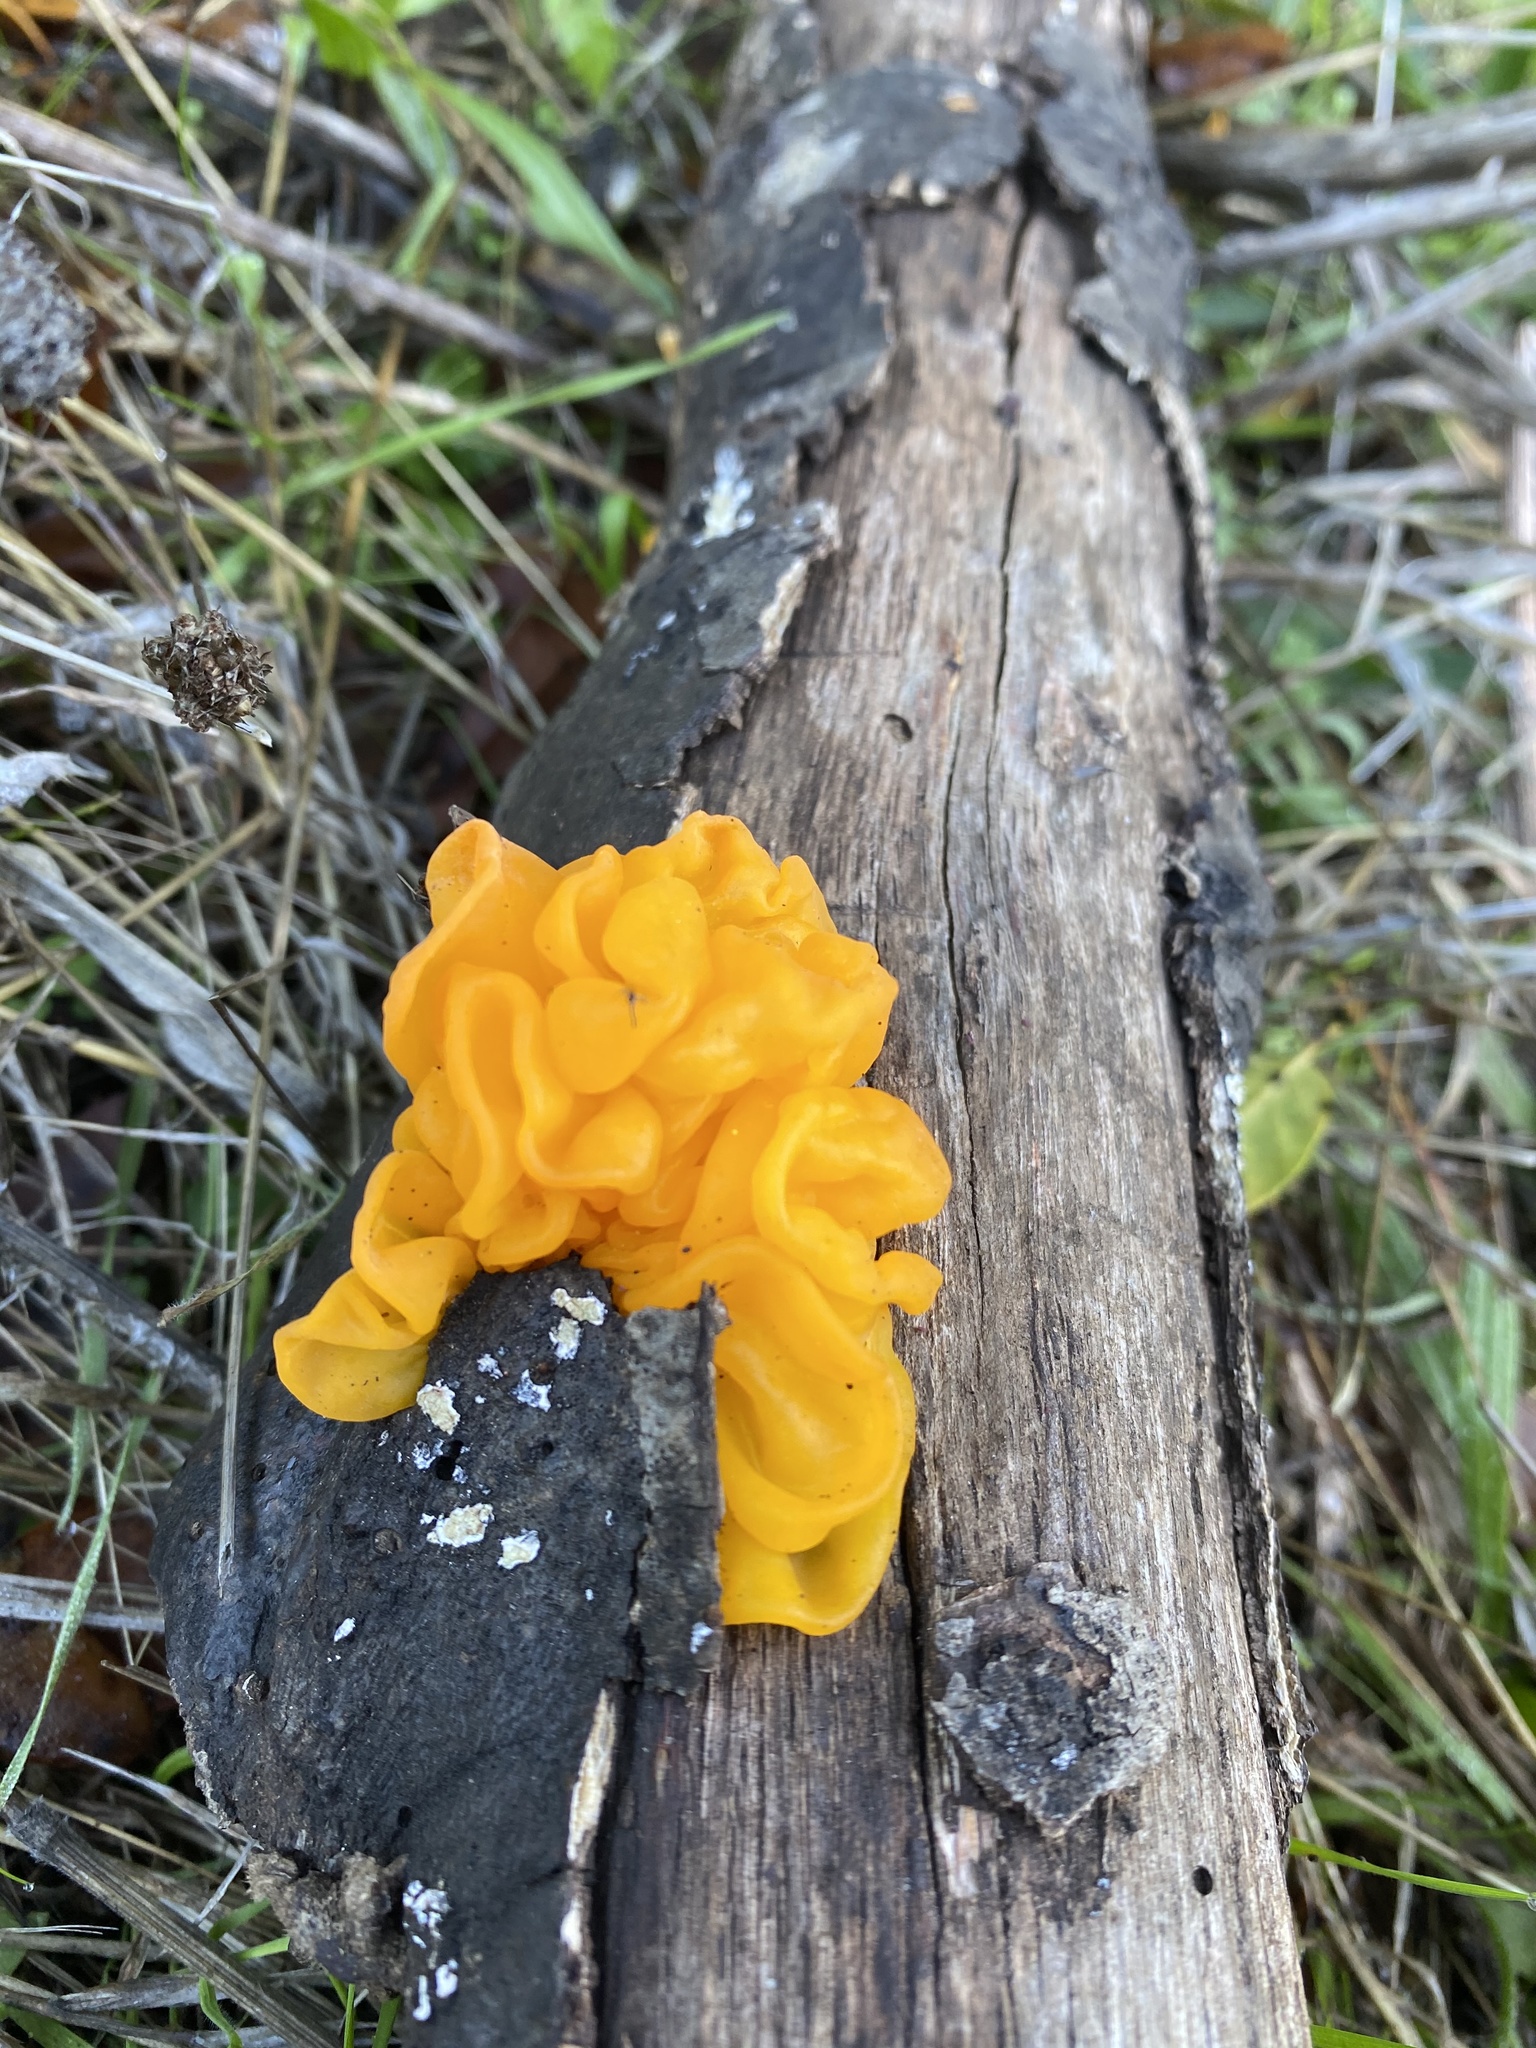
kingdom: Fungi
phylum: Basidiomycota
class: Tremellomycetes
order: Tremellales
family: Tremellaceae
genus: Tremella
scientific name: Tremella mesenterica
